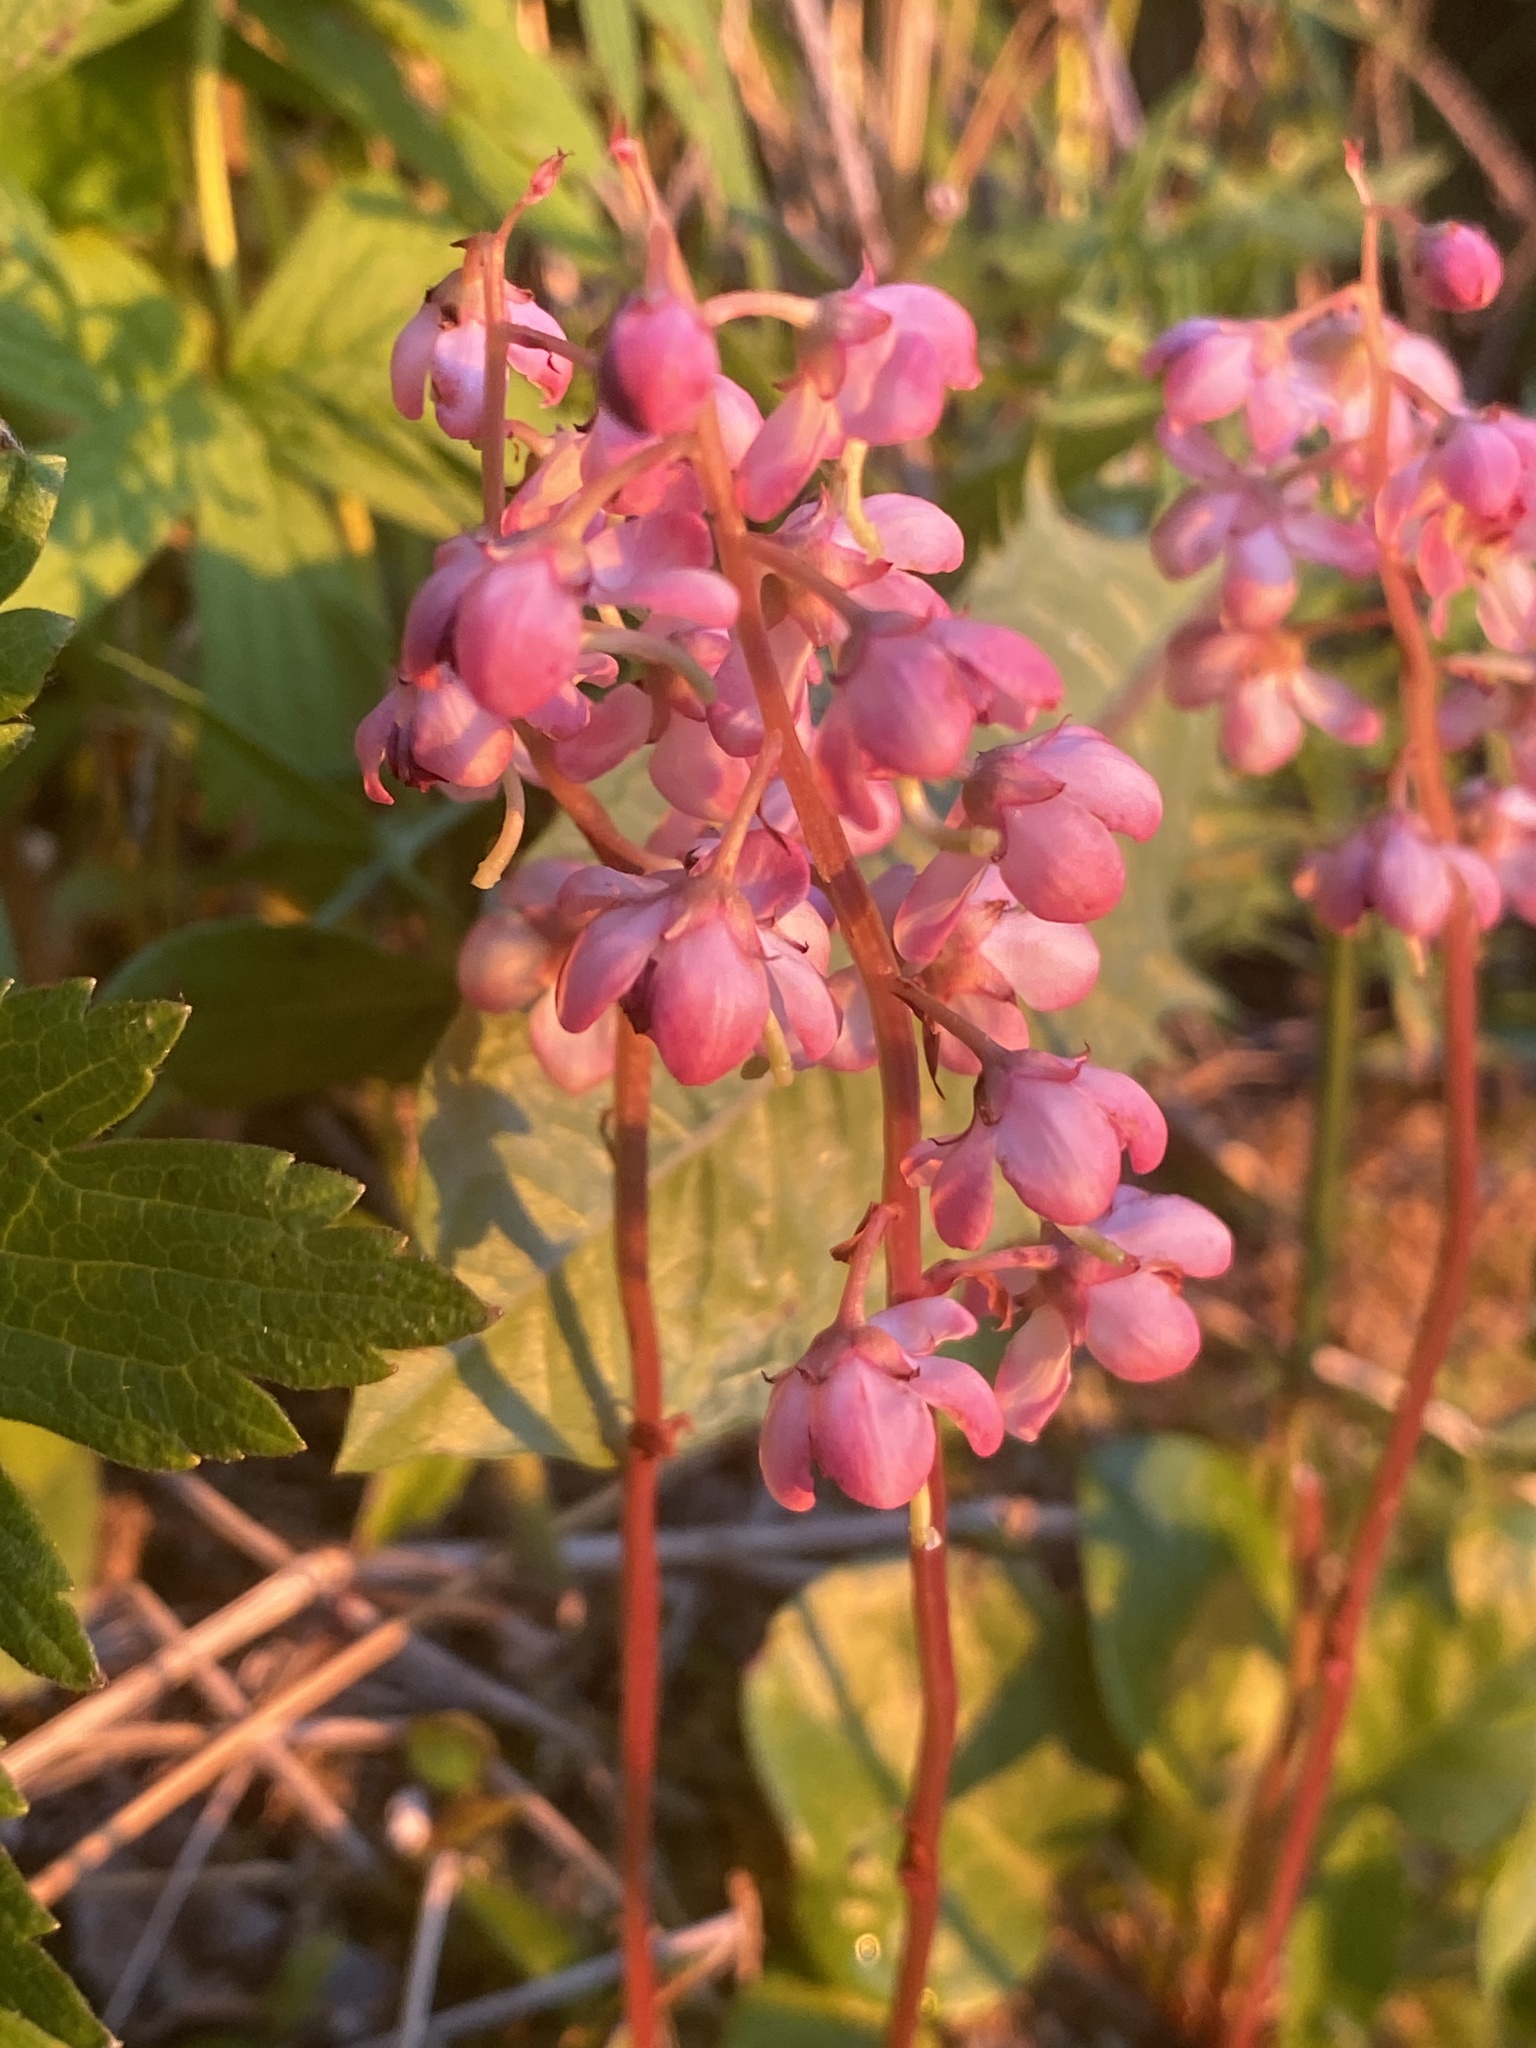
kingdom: Plantae
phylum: Tracheophyta
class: Magnoliopsida
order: Ericales
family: Ericaceae
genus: Pyrola
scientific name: Pyrola asarifolia
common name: Bog wintergreen
